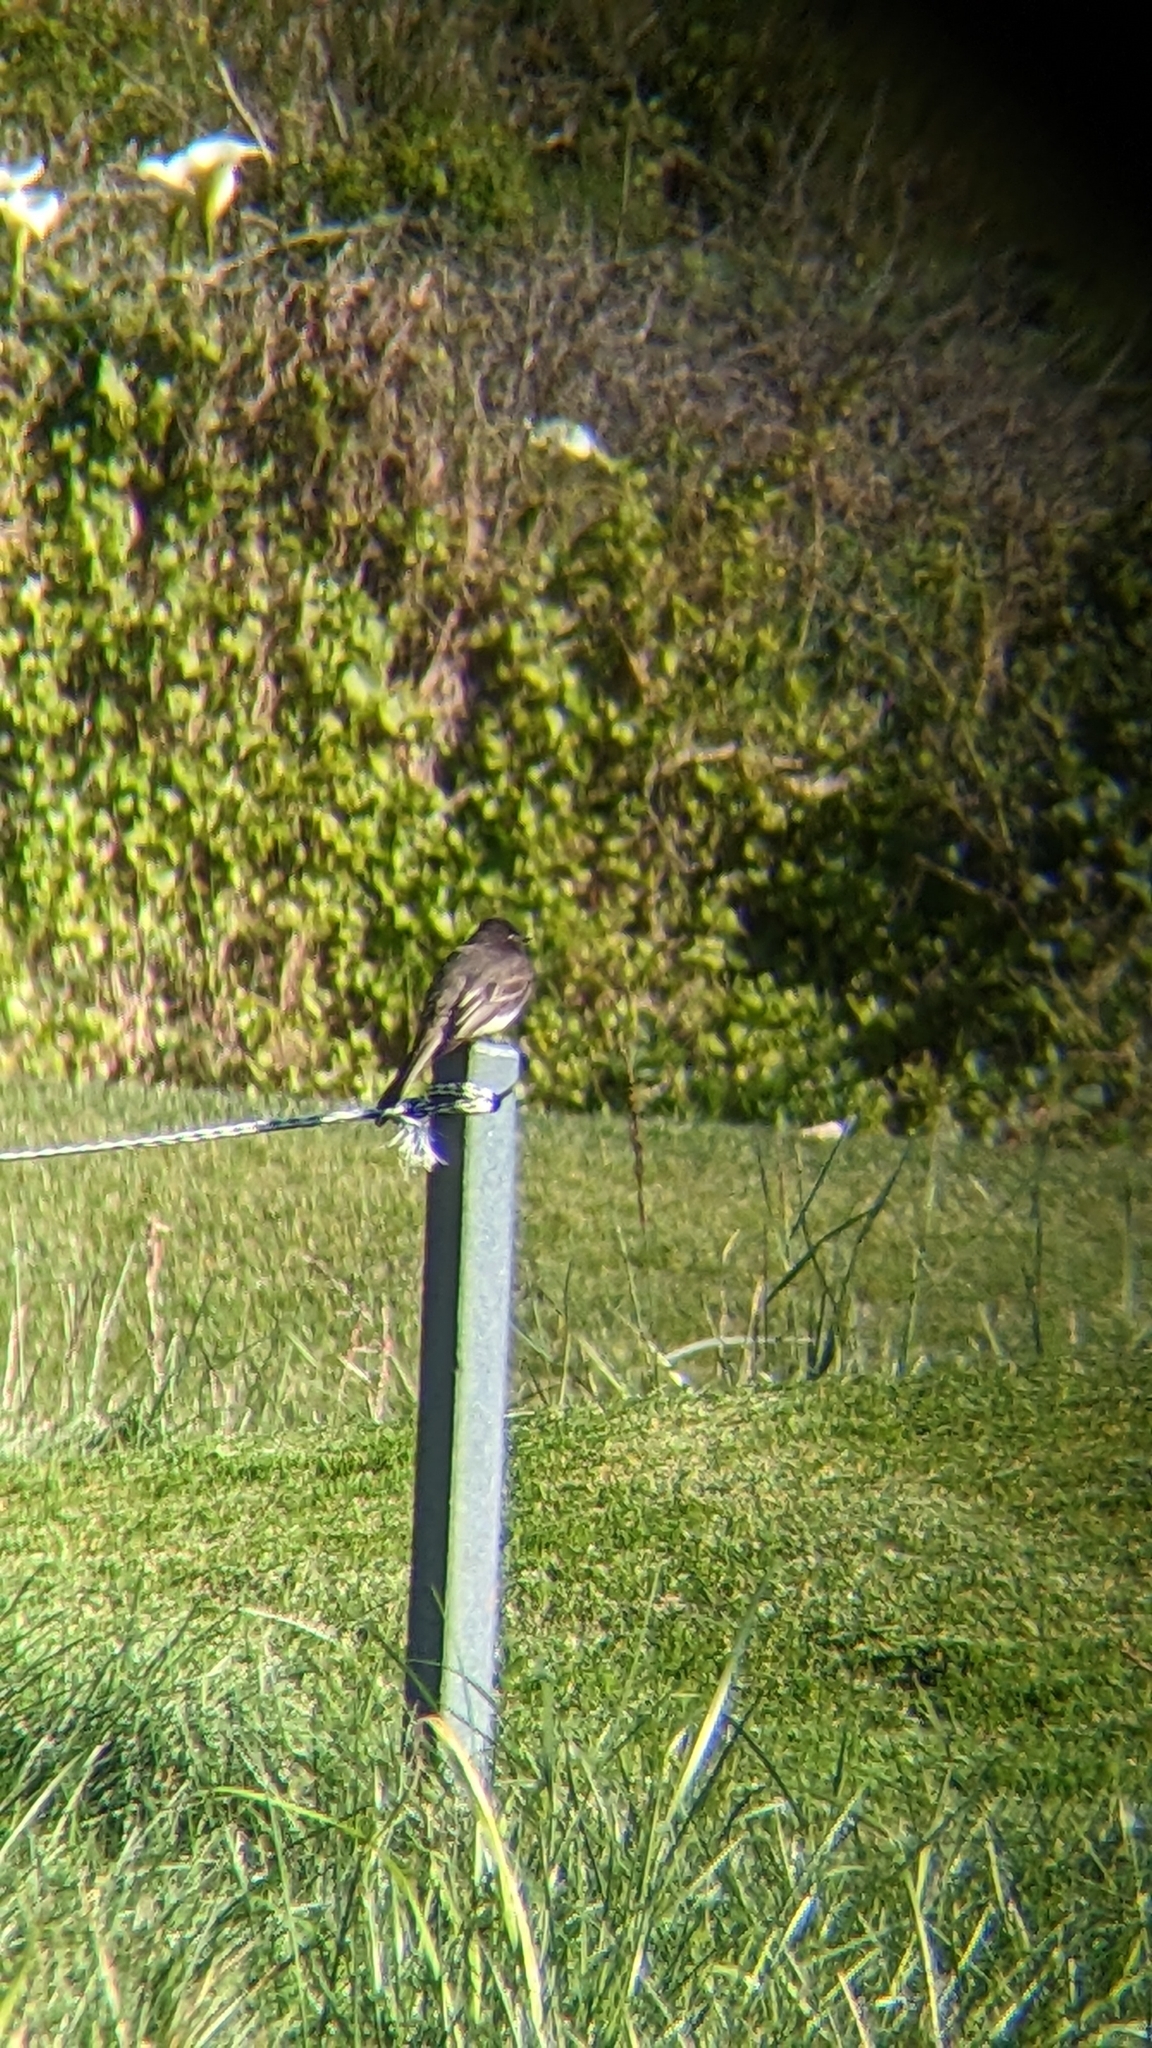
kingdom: Animalia
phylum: Chordata
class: Aves
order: Passeriformes
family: Tyrannidae
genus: Sayornis
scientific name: Sayornis nigricans
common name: Black phoebe
